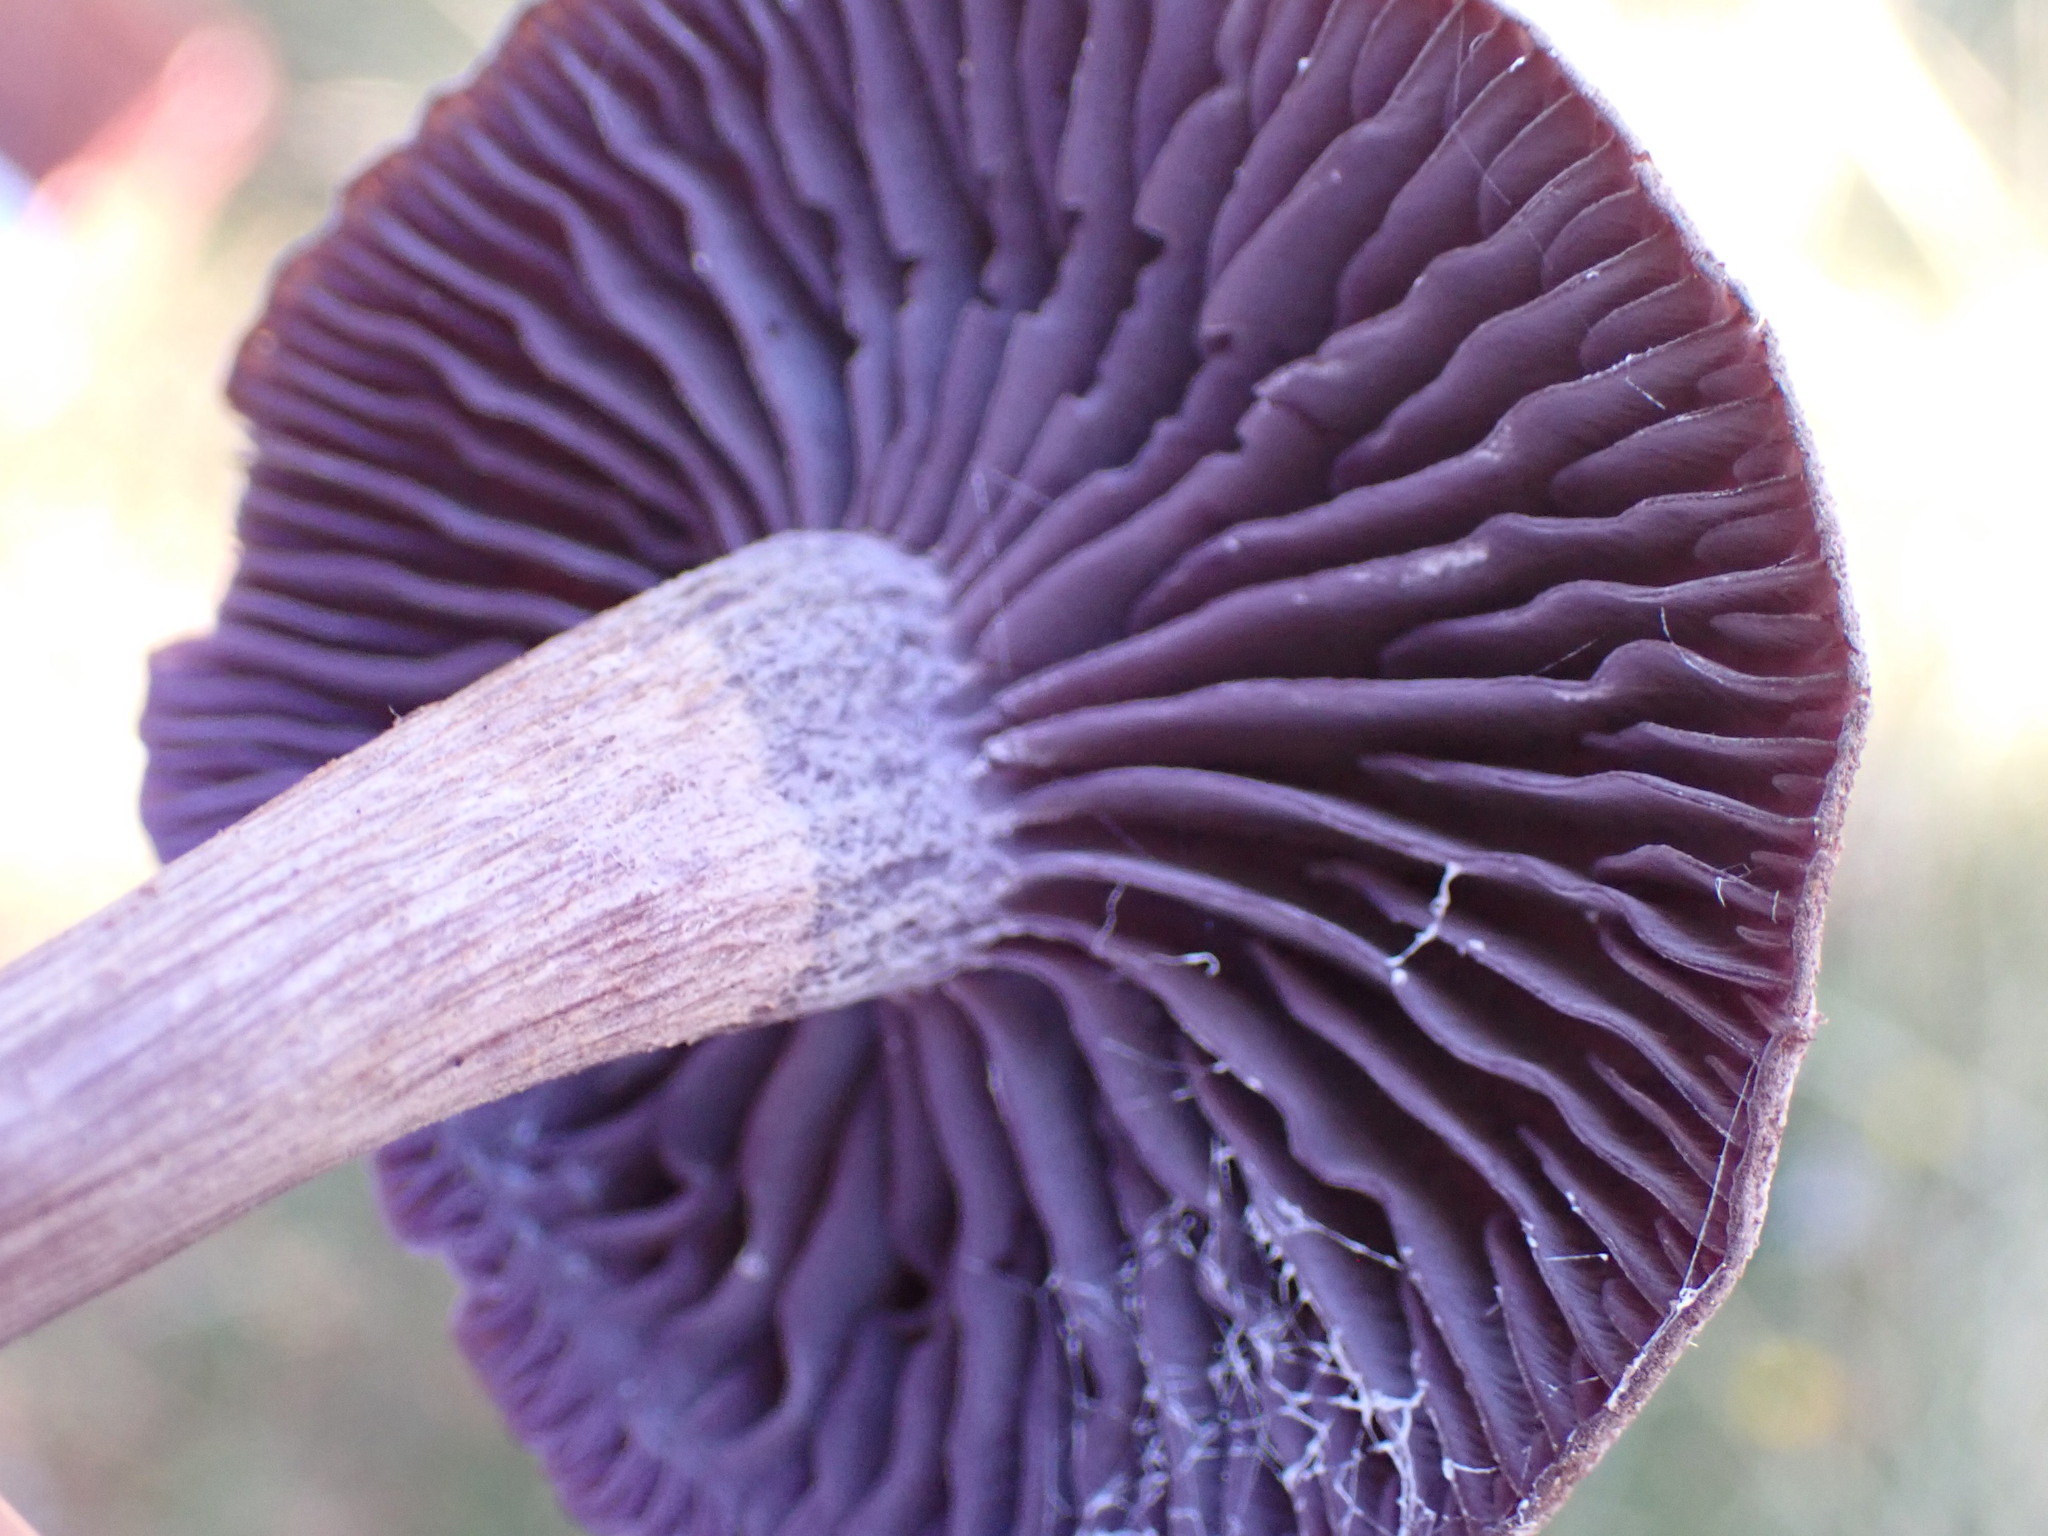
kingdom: Fungi
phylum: Basidiomycota
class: Agaricomycetes
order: Agaricales
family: Hydnangiaceae
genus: Laccaria
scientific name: Laccaria amethystina
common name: Amethyst deceiver
